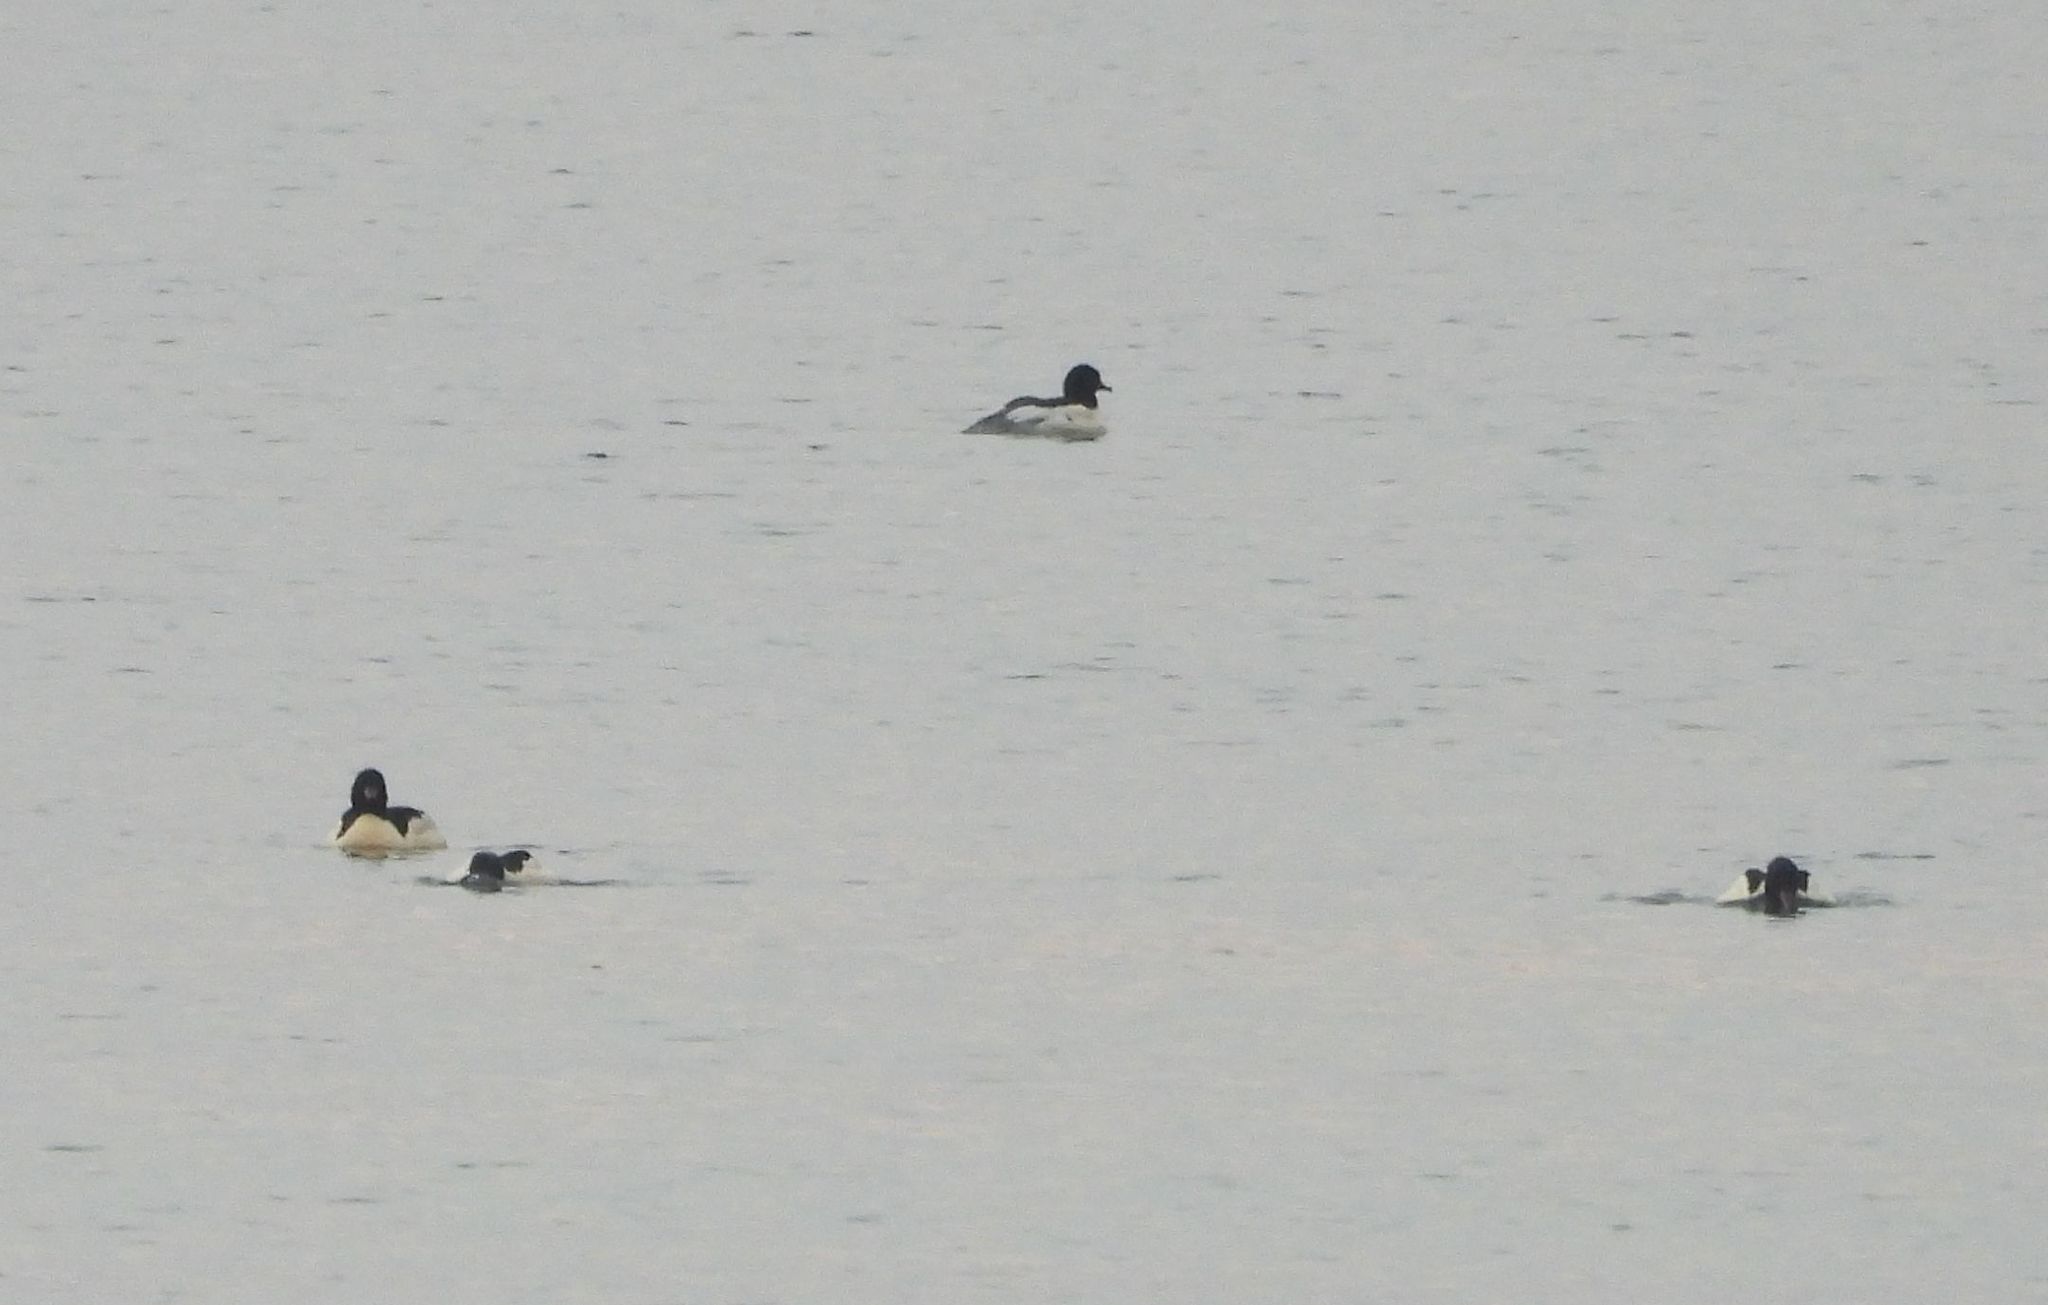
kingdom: Animalia
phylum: Chordata
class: Aves
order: Anseriformes
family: Anatidae
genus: Mergus
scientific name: Mergus merganser
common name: Common merganser
